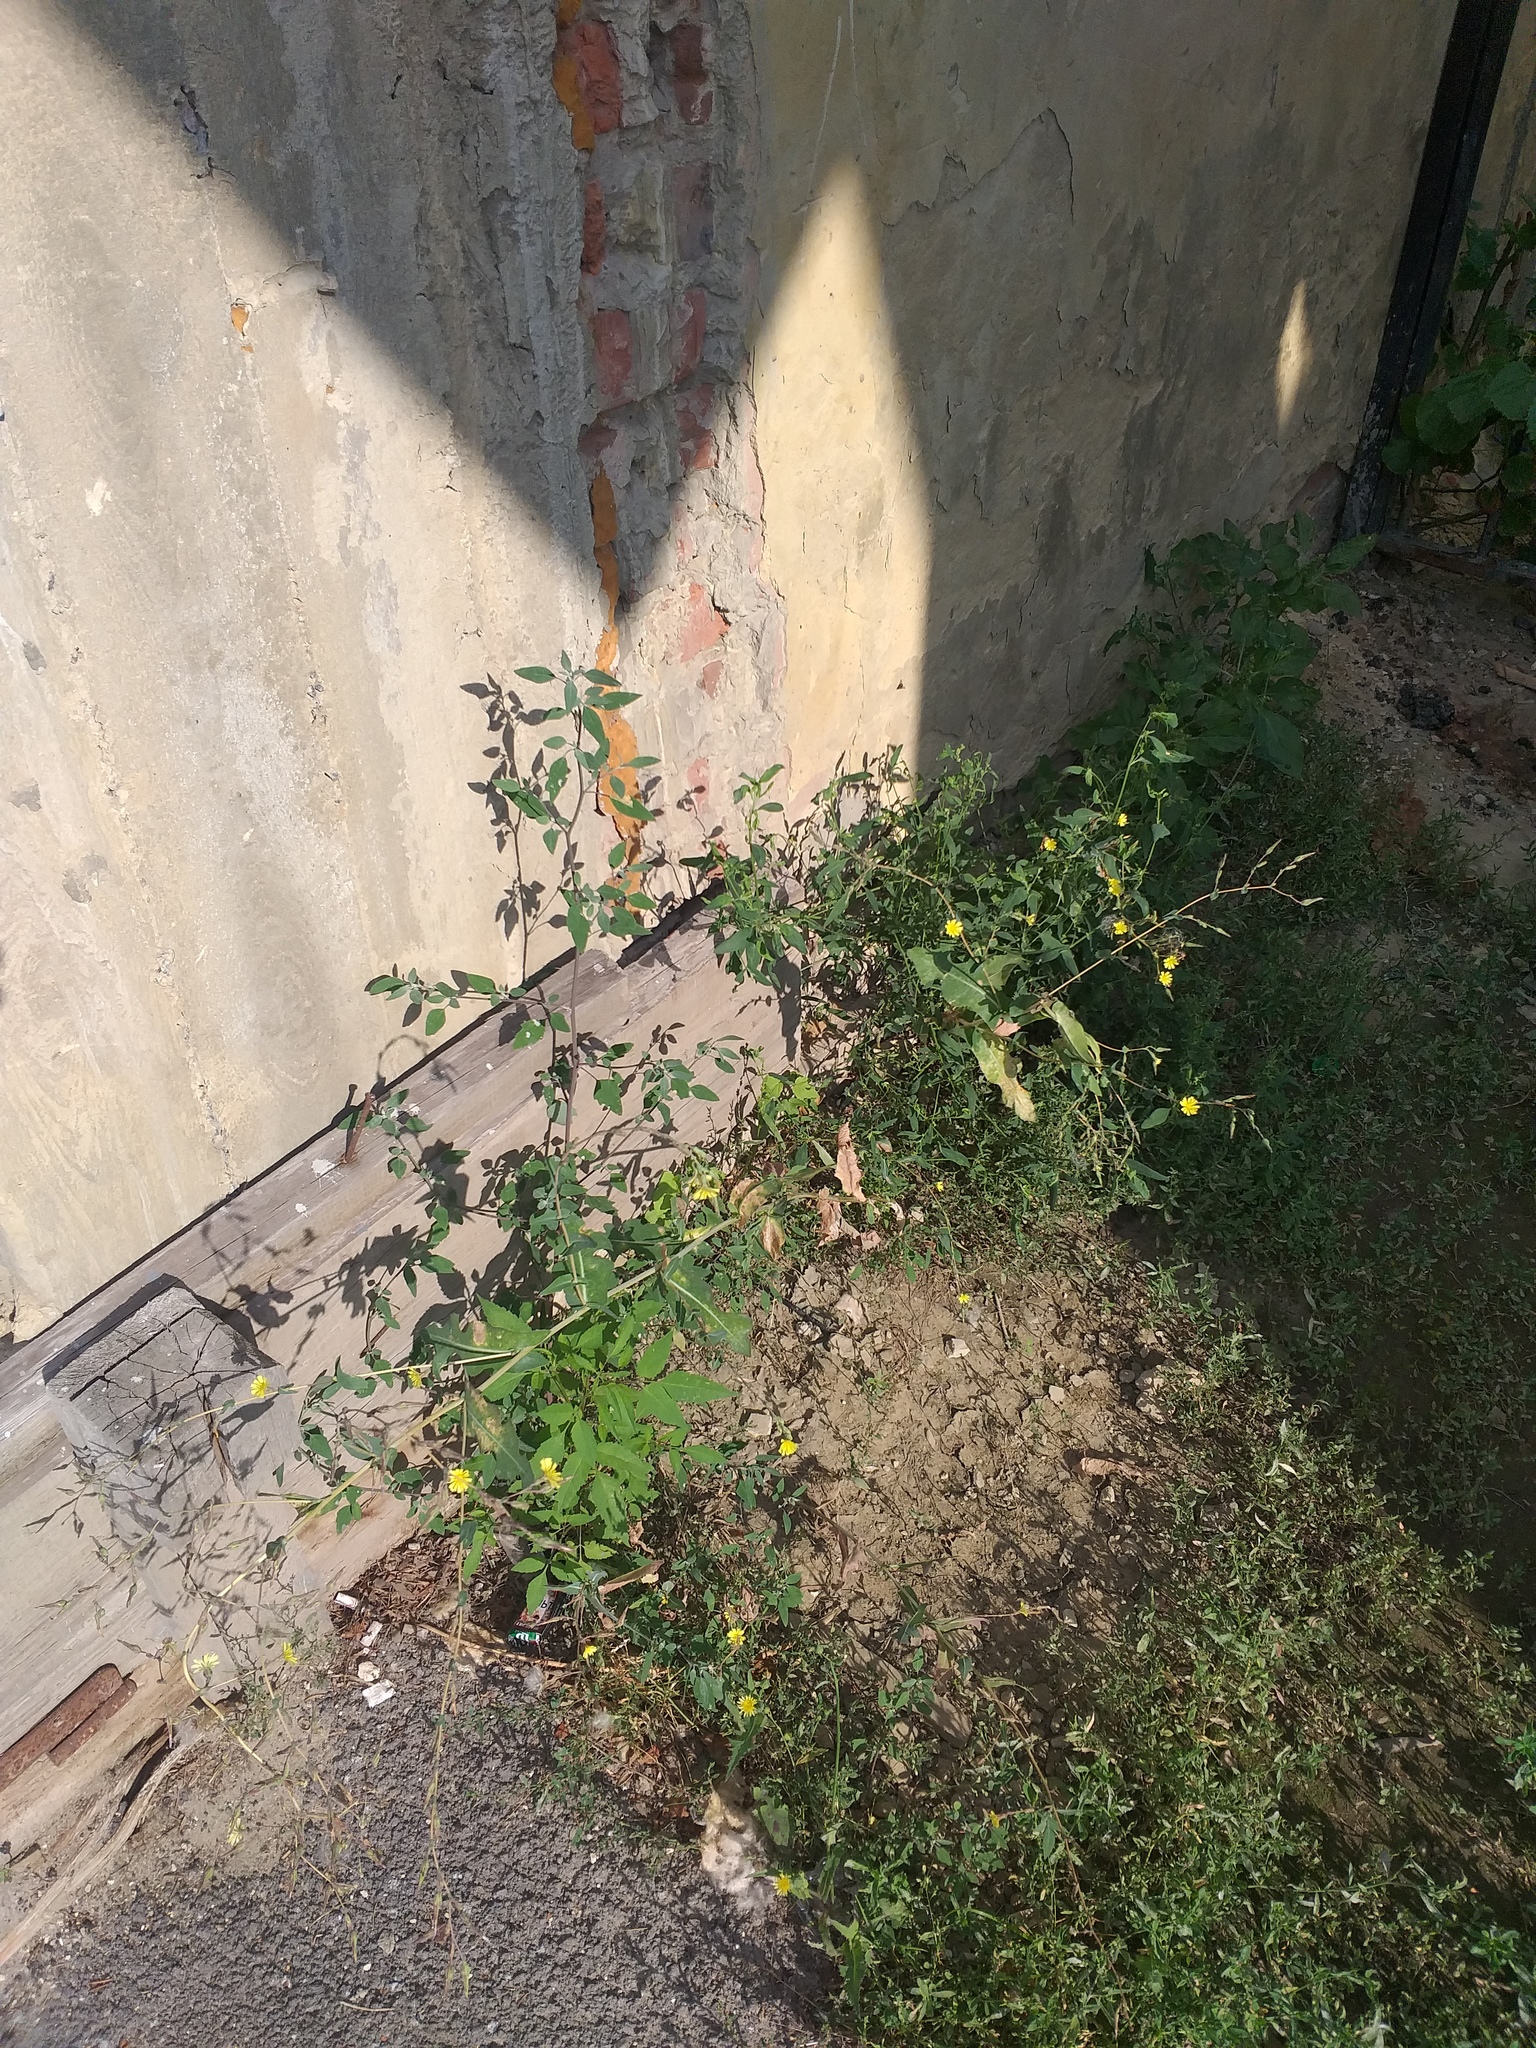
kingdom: Plantae
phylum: Tracheophyta
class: Magnoliopsida
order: Asterales
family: Asteraceae
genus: Lactuca
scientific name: Lactuca serriola
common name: Prickly lettuce
